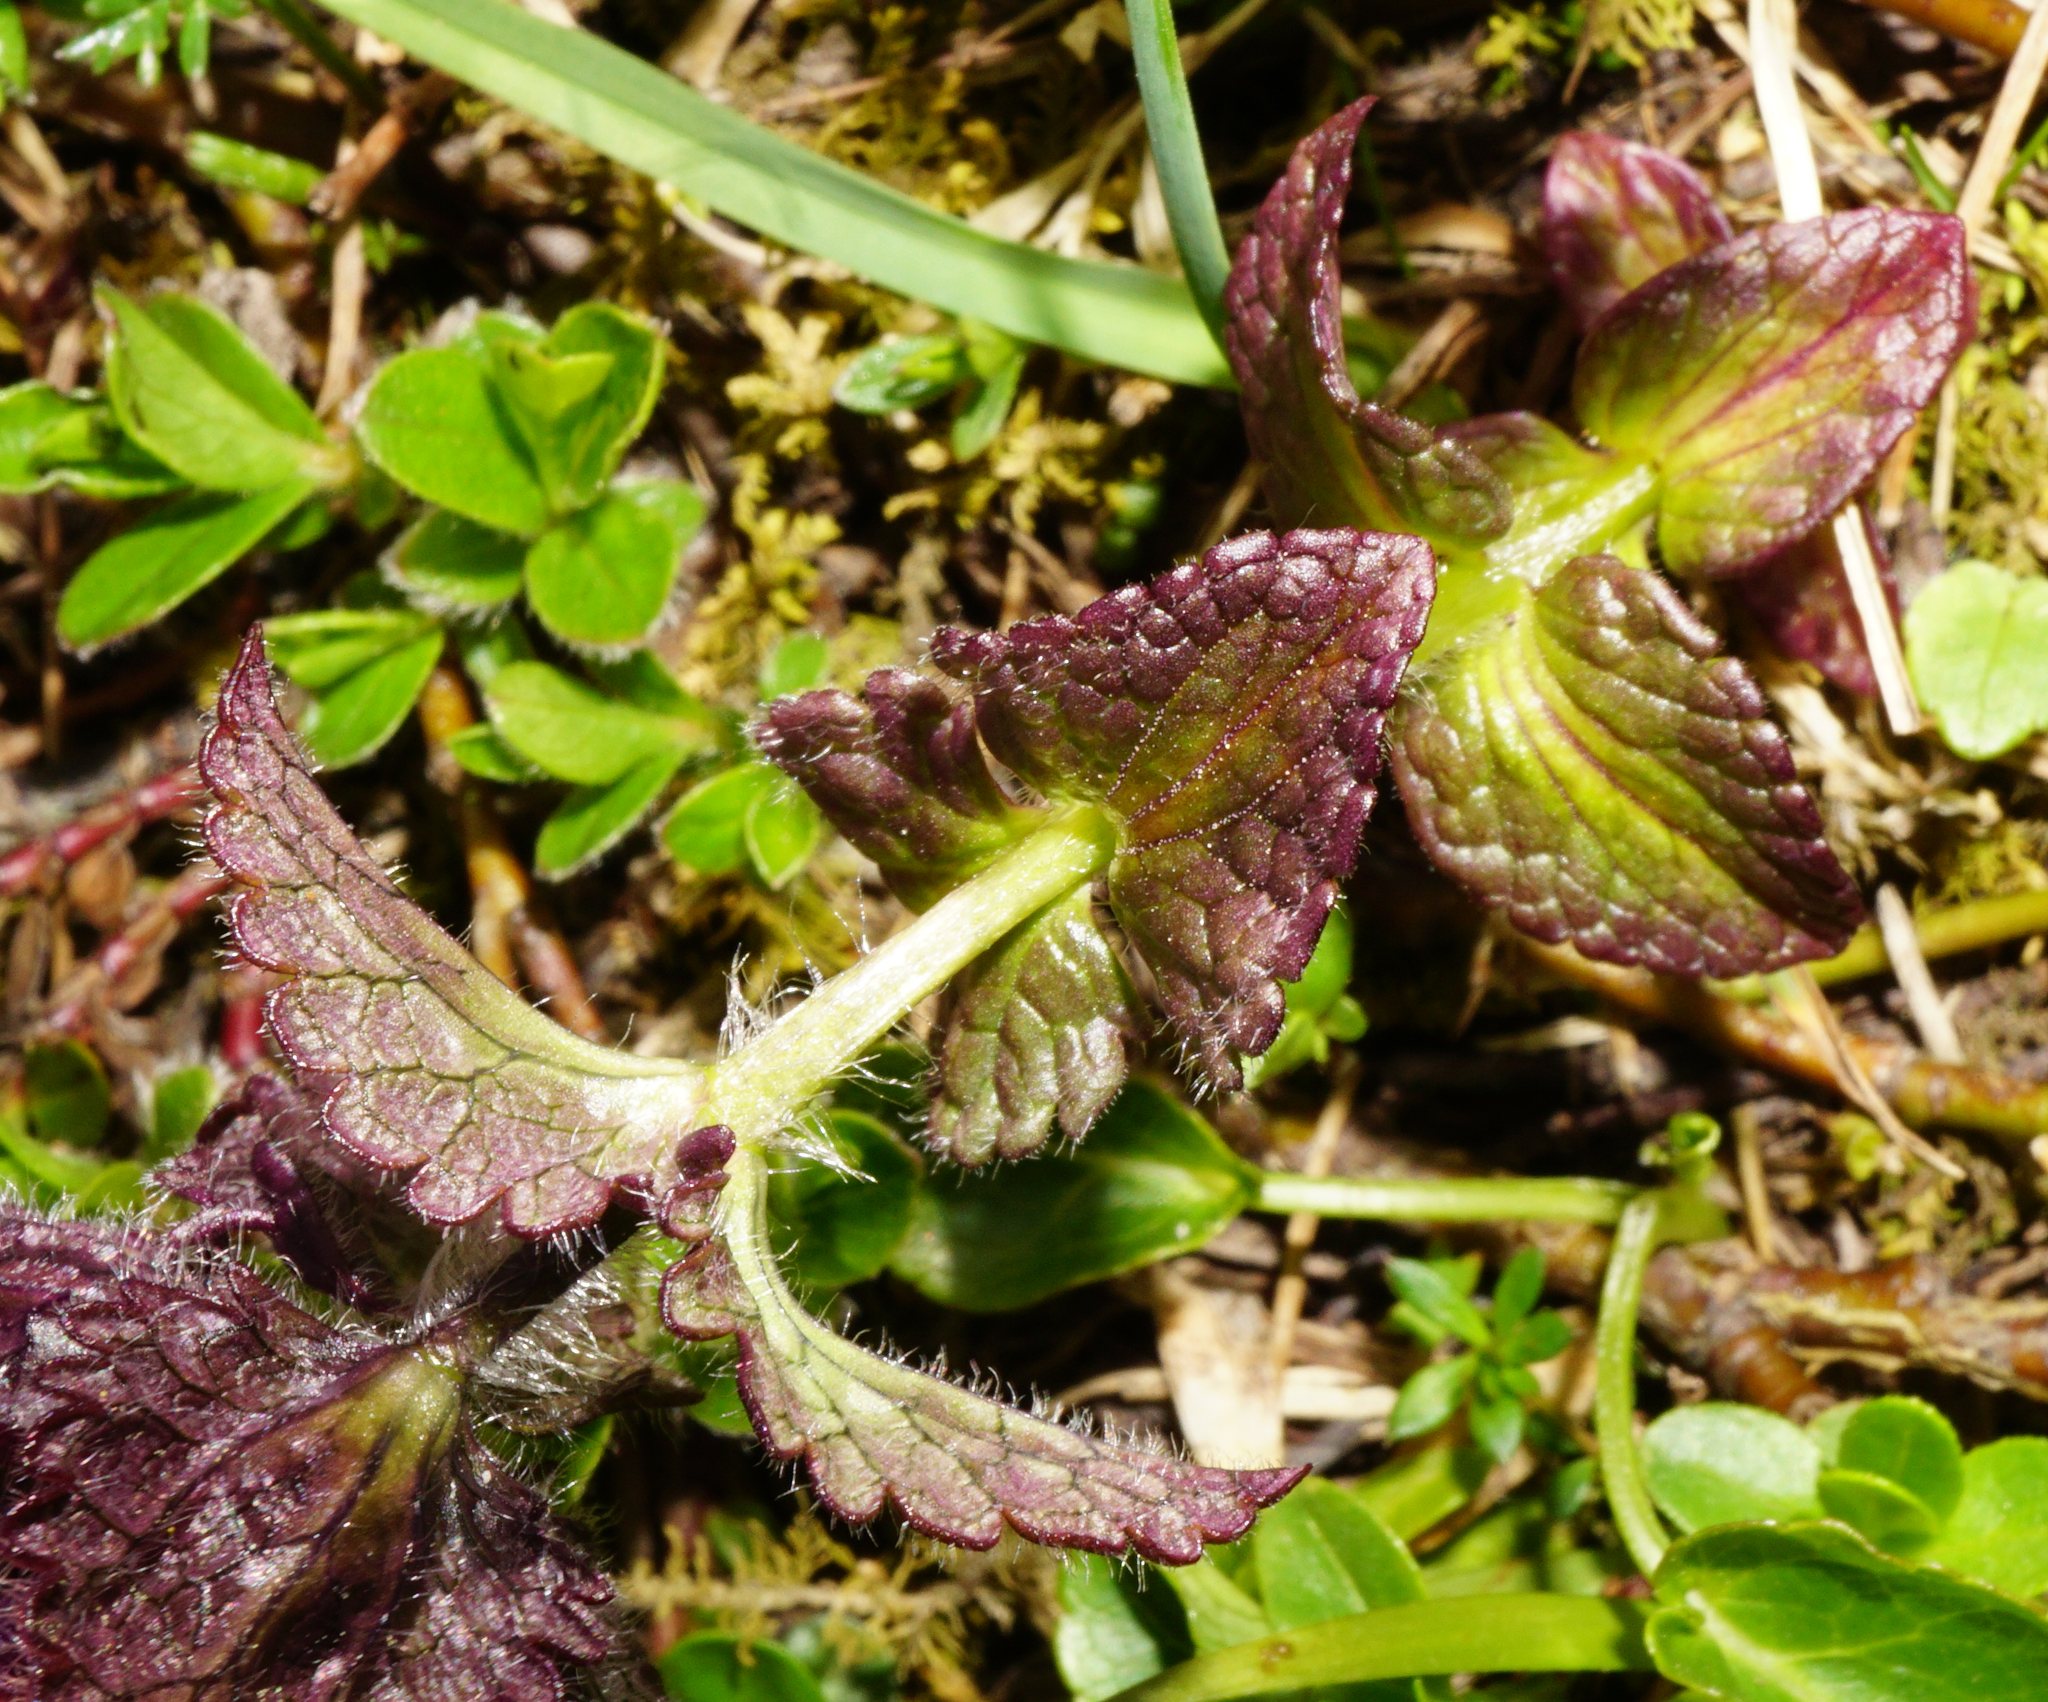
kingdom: Plantae
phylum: Tracheophyta
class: Magnoliopsida
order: Lamiales
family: Orobanchaceae
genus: Bartsia
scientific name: Bartsia alpina
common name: Alpine bartsia
